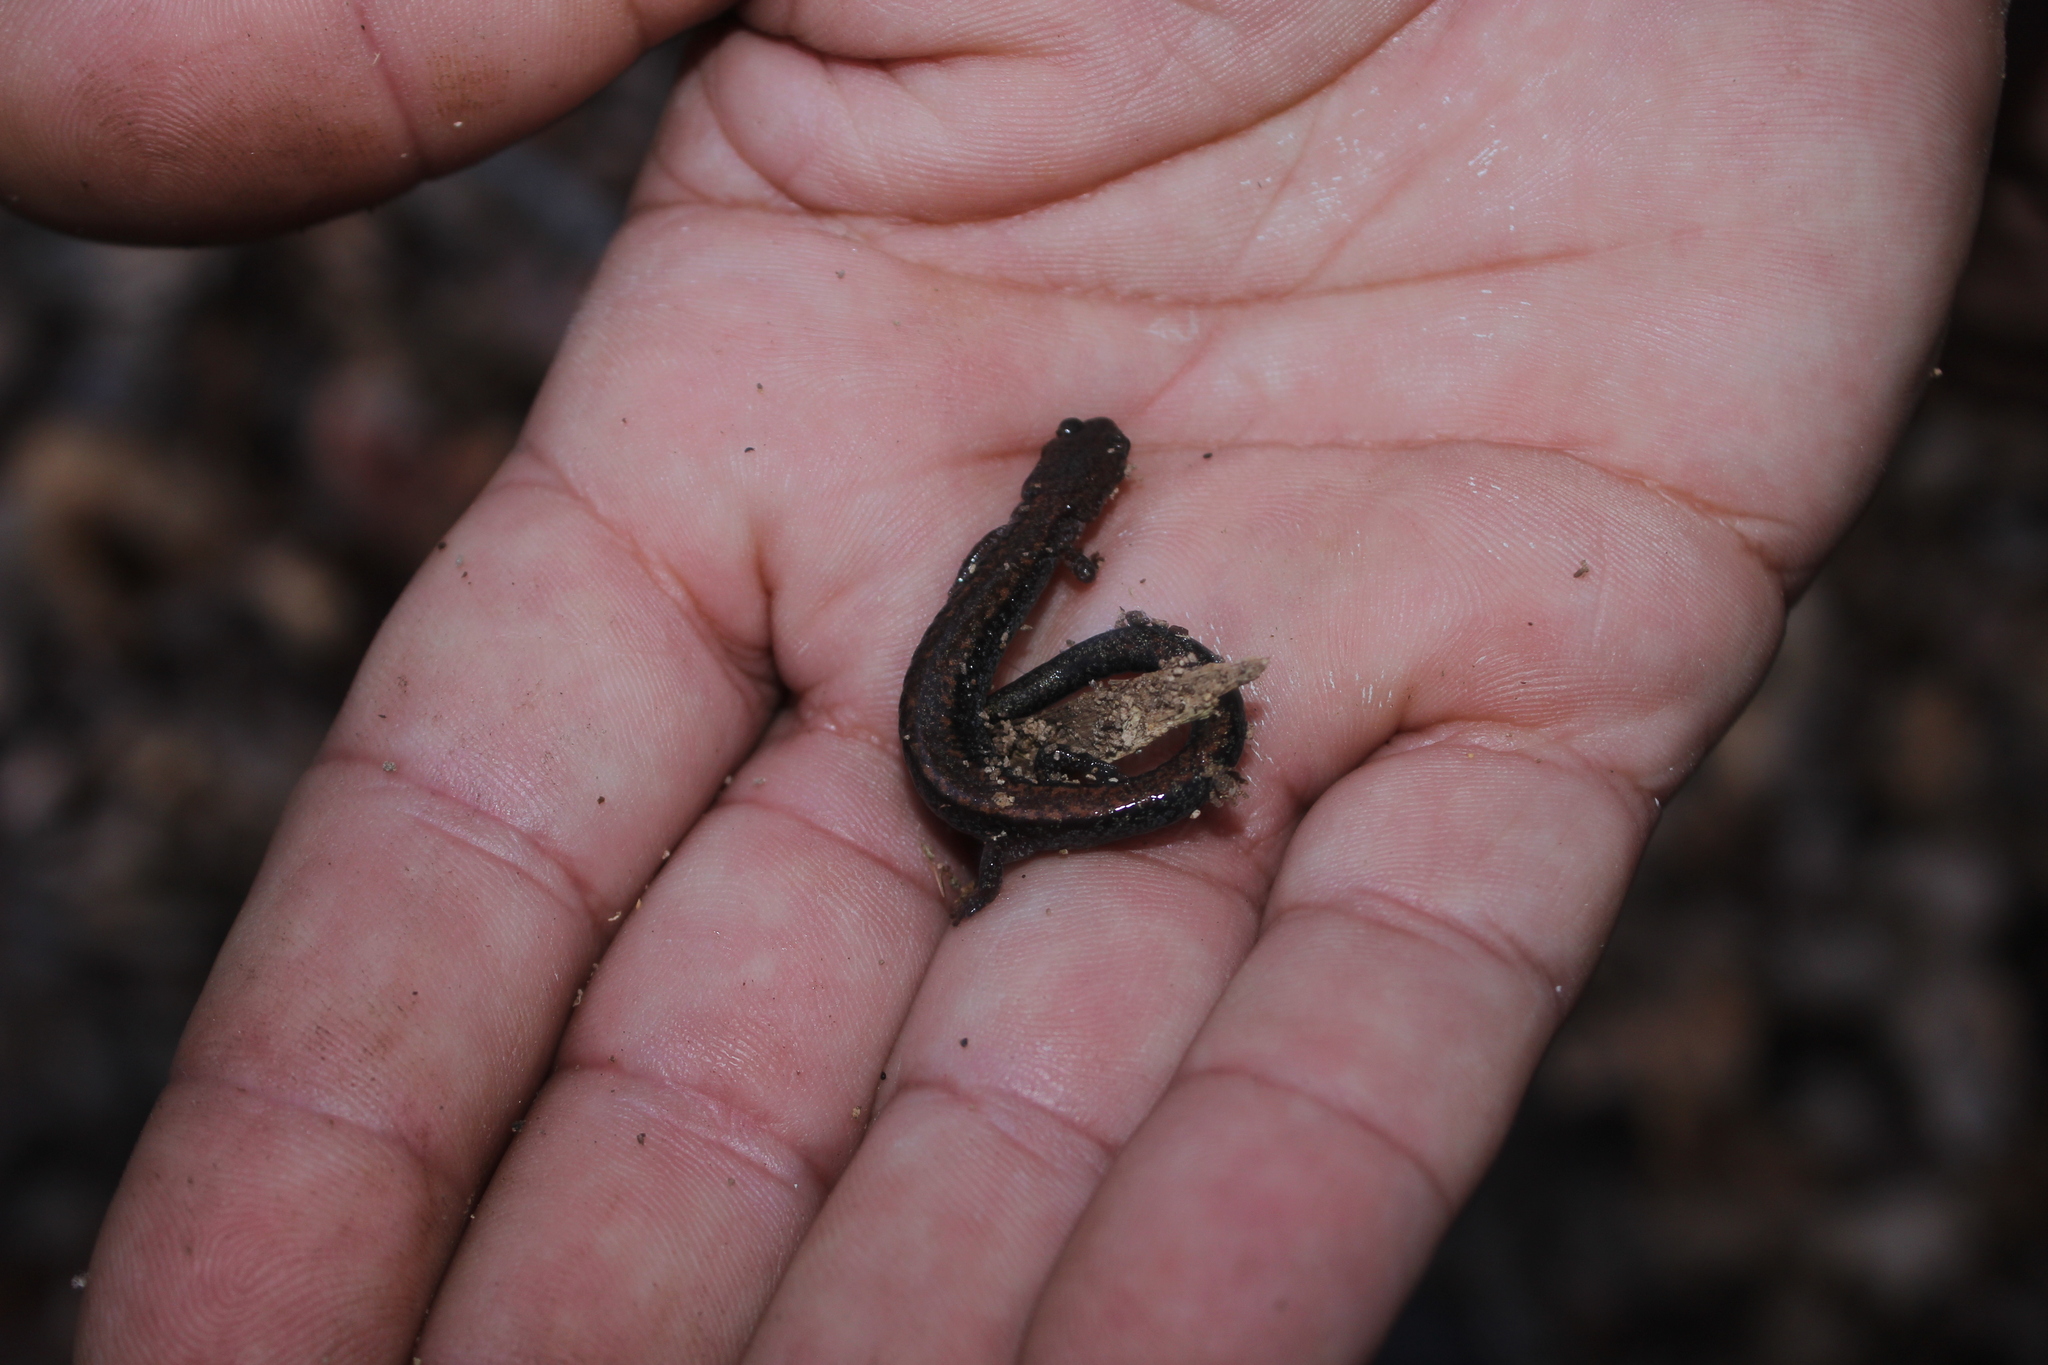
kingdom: Animalia
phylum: Chordata
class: Amphibia
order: Caudata
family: Plethodontidae
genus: Plethodon
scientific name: Plethodon cinereus
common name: Redback salamander
